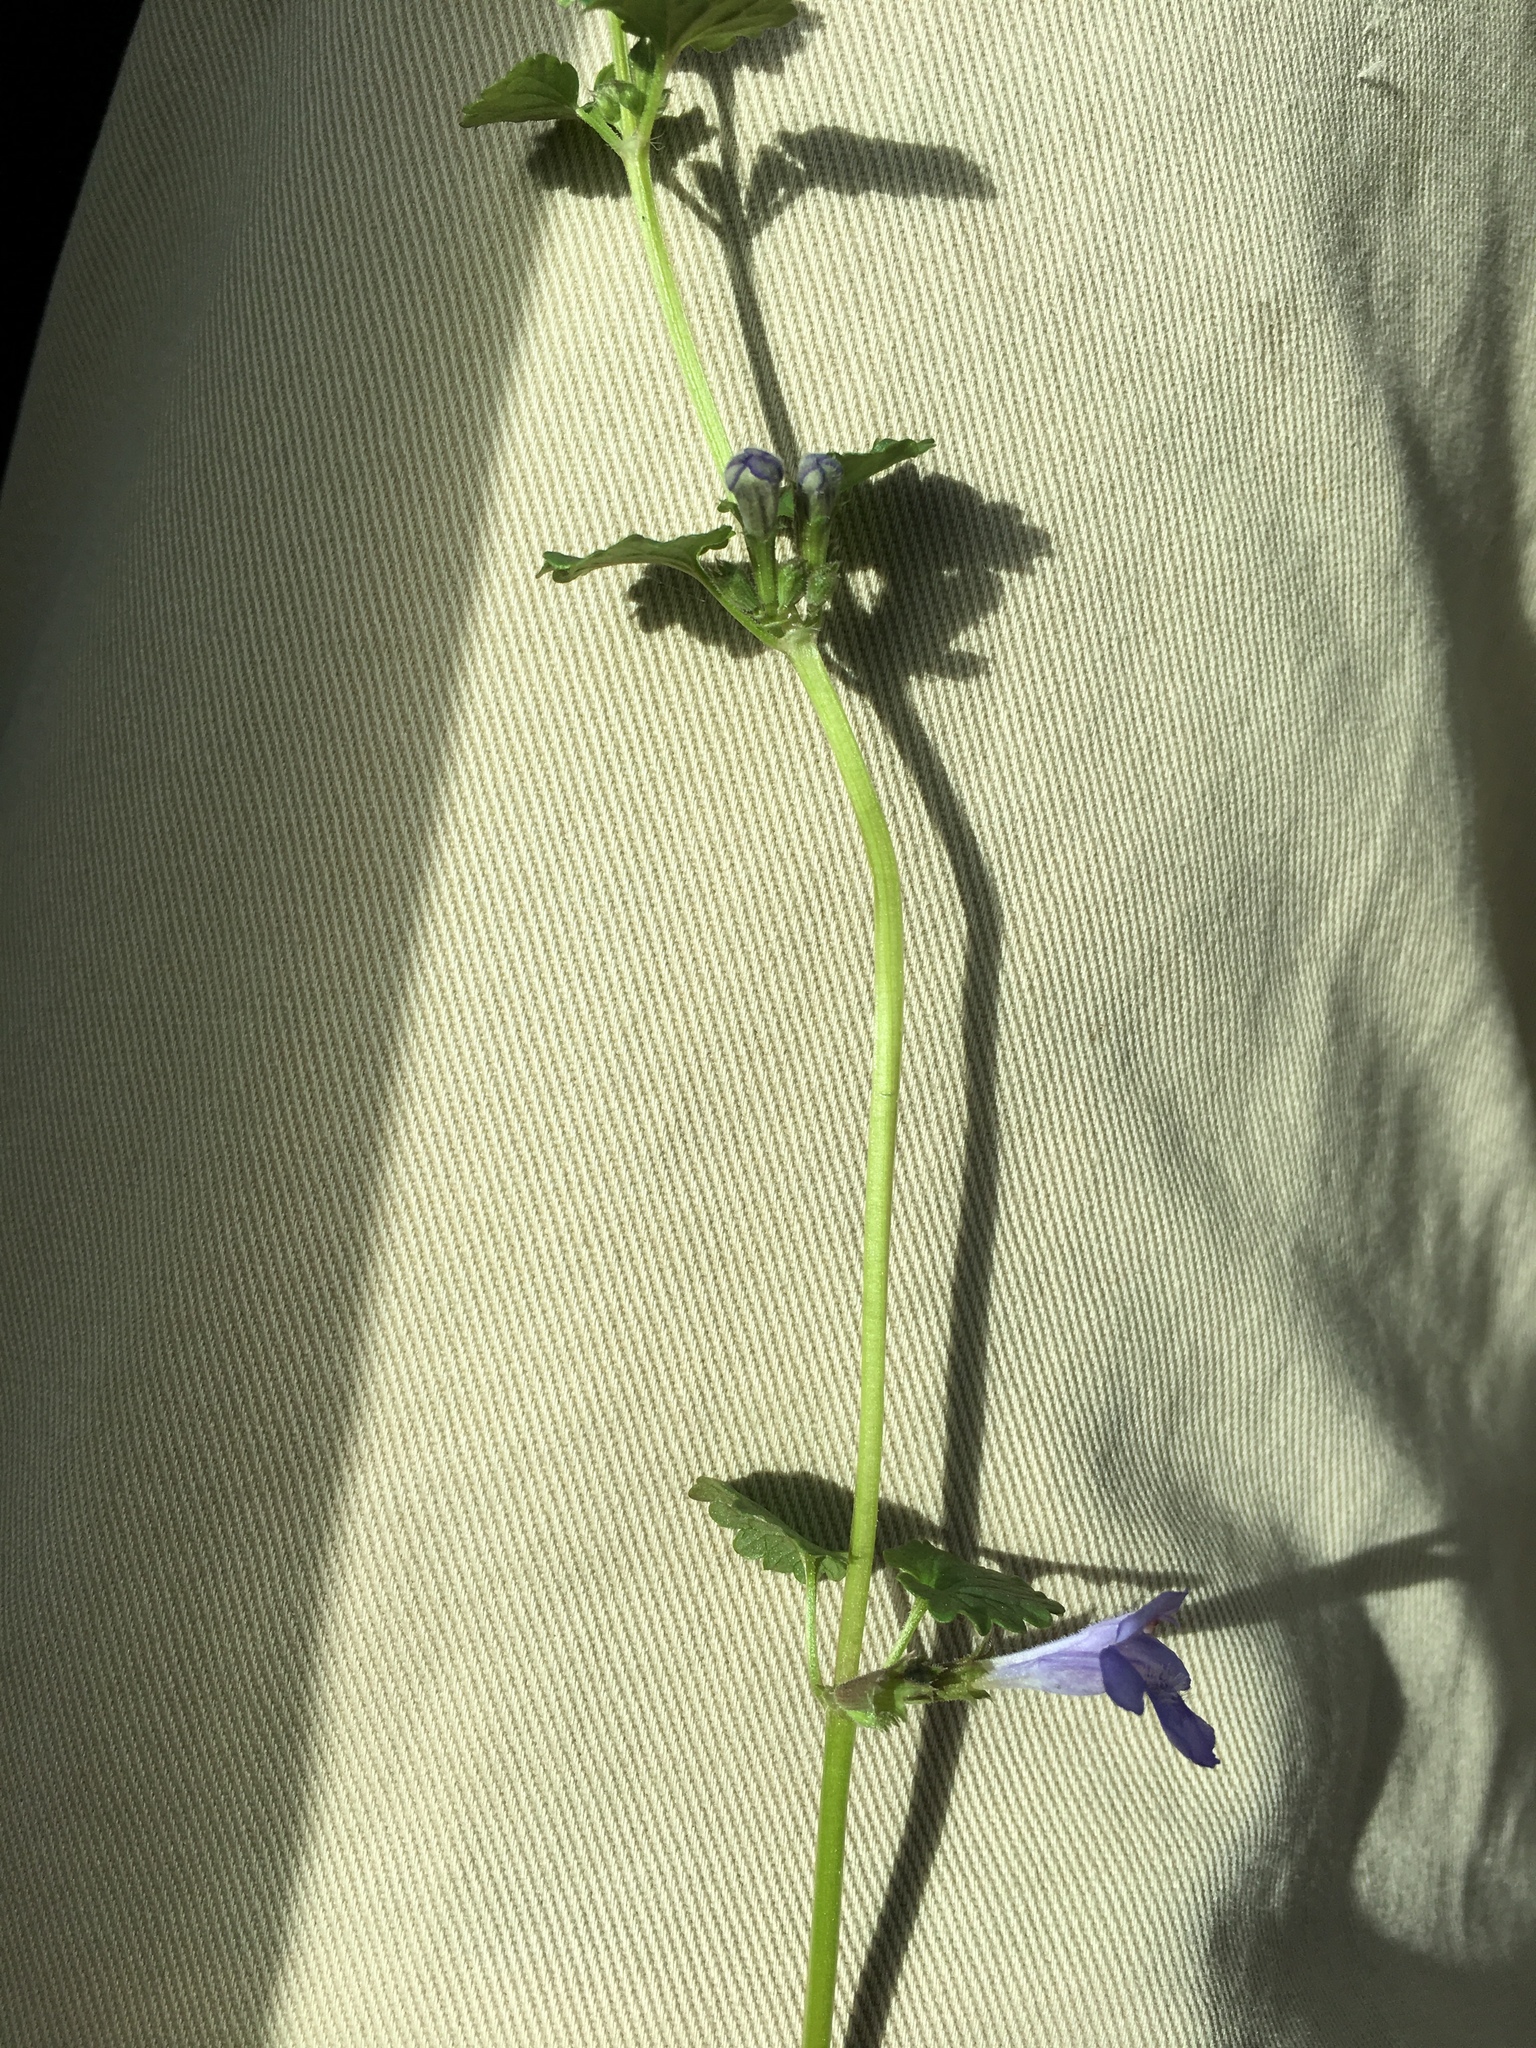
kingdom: Plantae
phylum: Tracheophyta
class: Magnoliopsida
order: Lamiales
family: Lamiaceae
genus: Glechoma
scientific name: Glechoma hederacea
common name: Ground ivy
